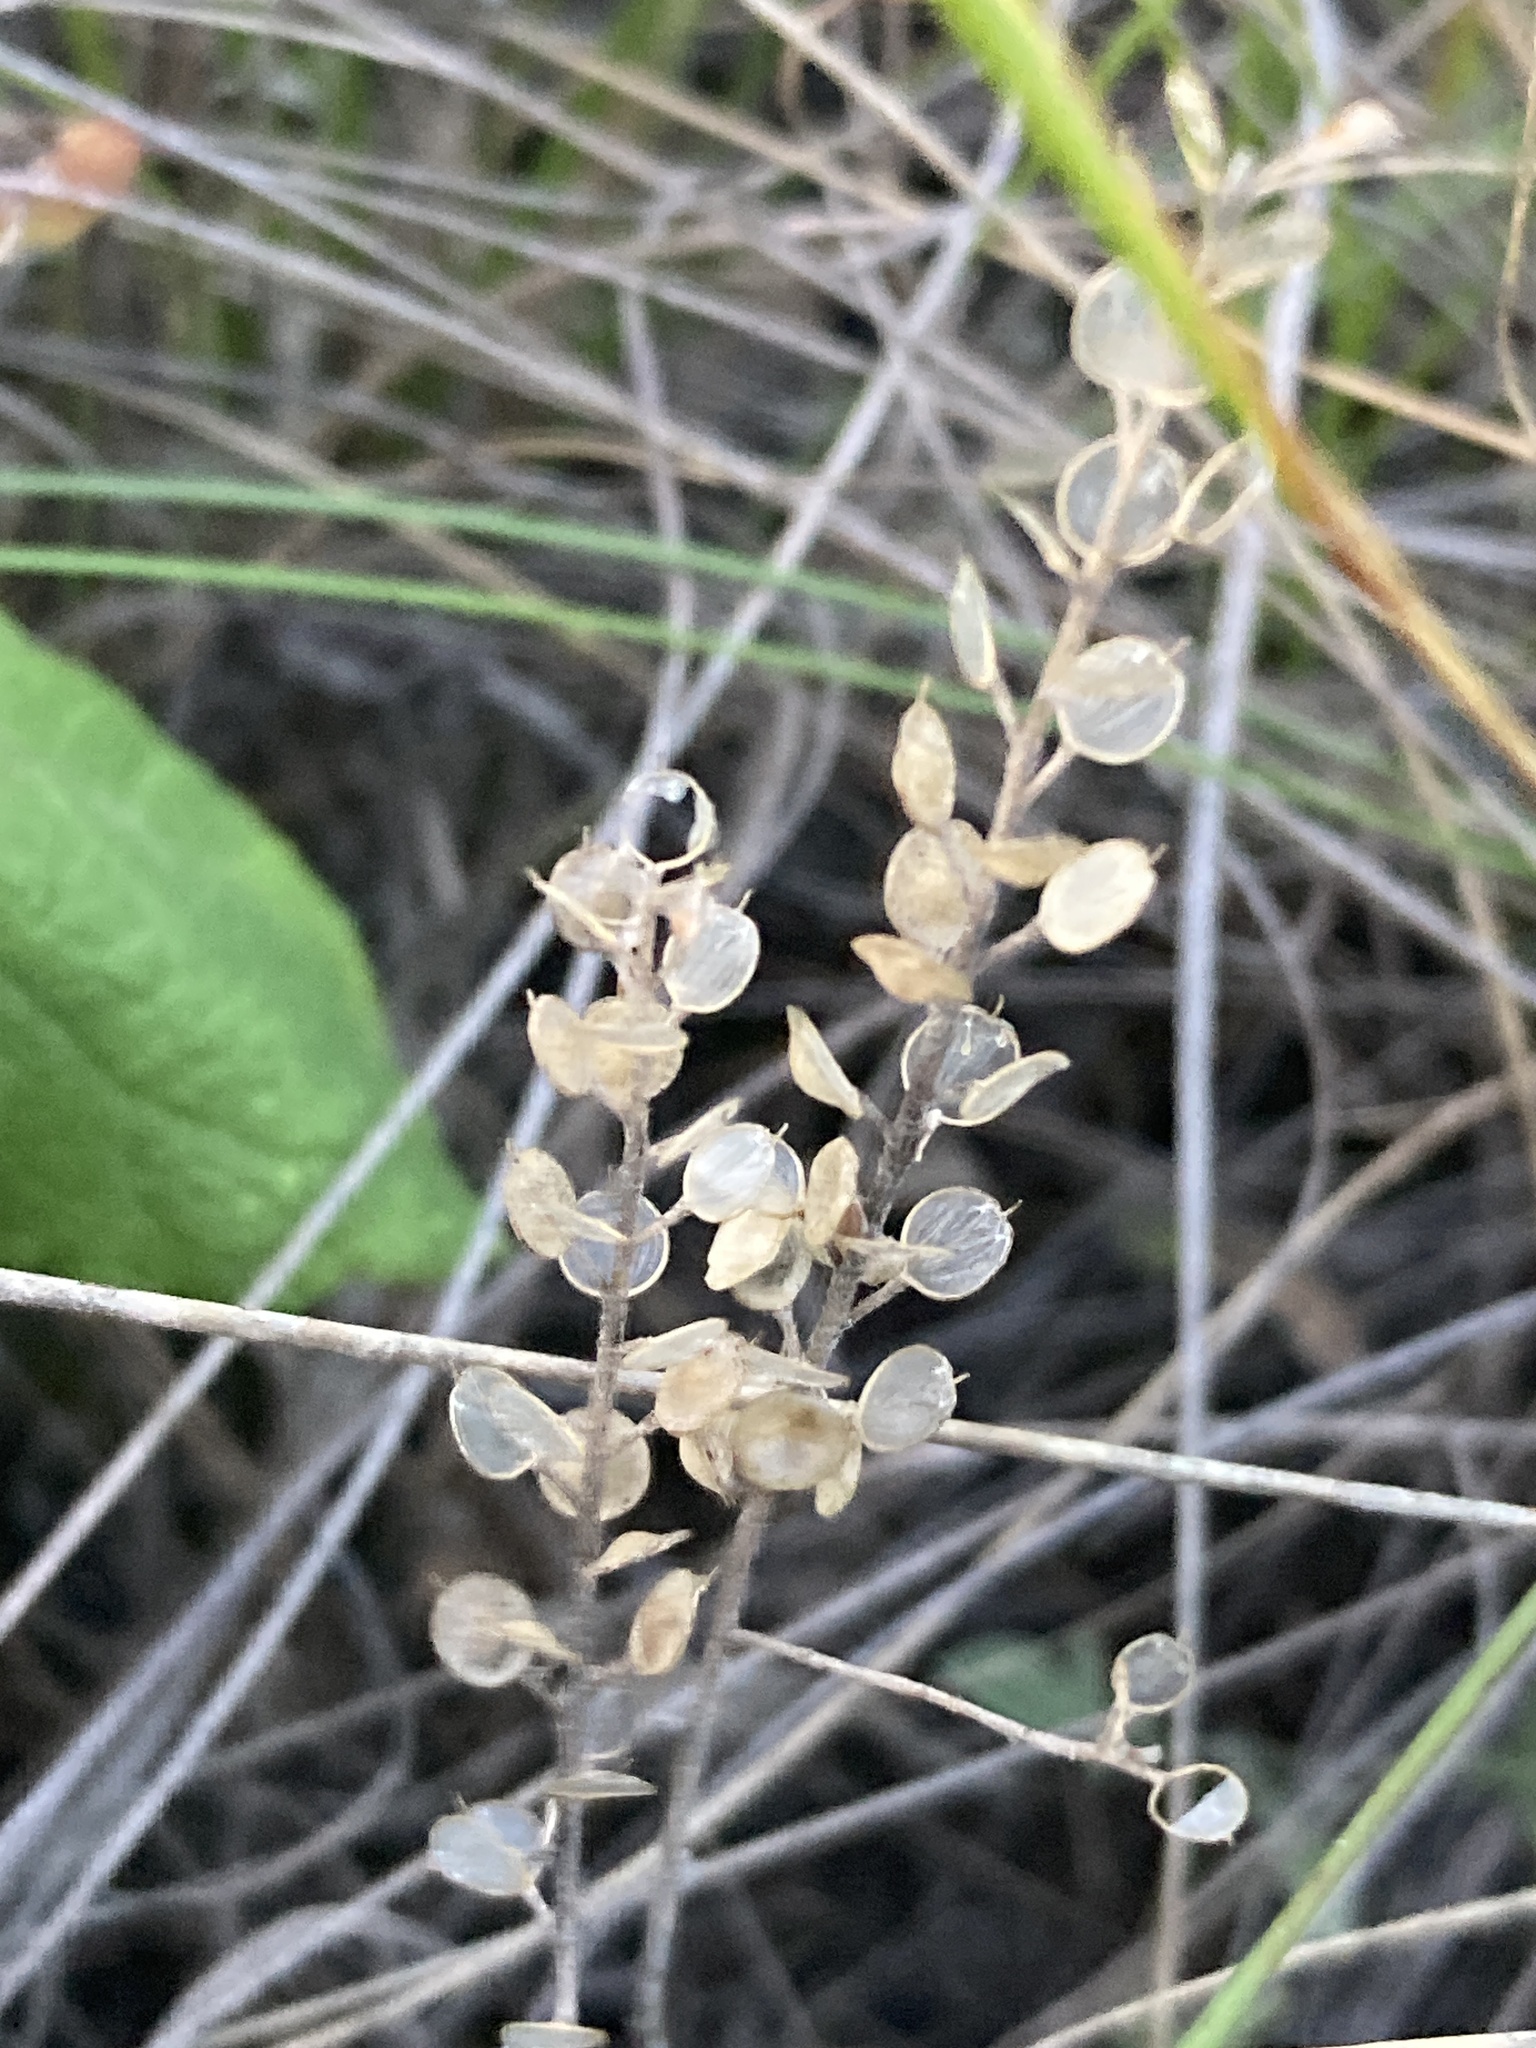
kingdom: Plantae
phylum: Tracheophyta
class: Magnoliopsida
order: Brassicales
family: Brassicaceae
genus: Alyssum
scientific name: Alyssum turkestanicum
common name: Desert alyssum
